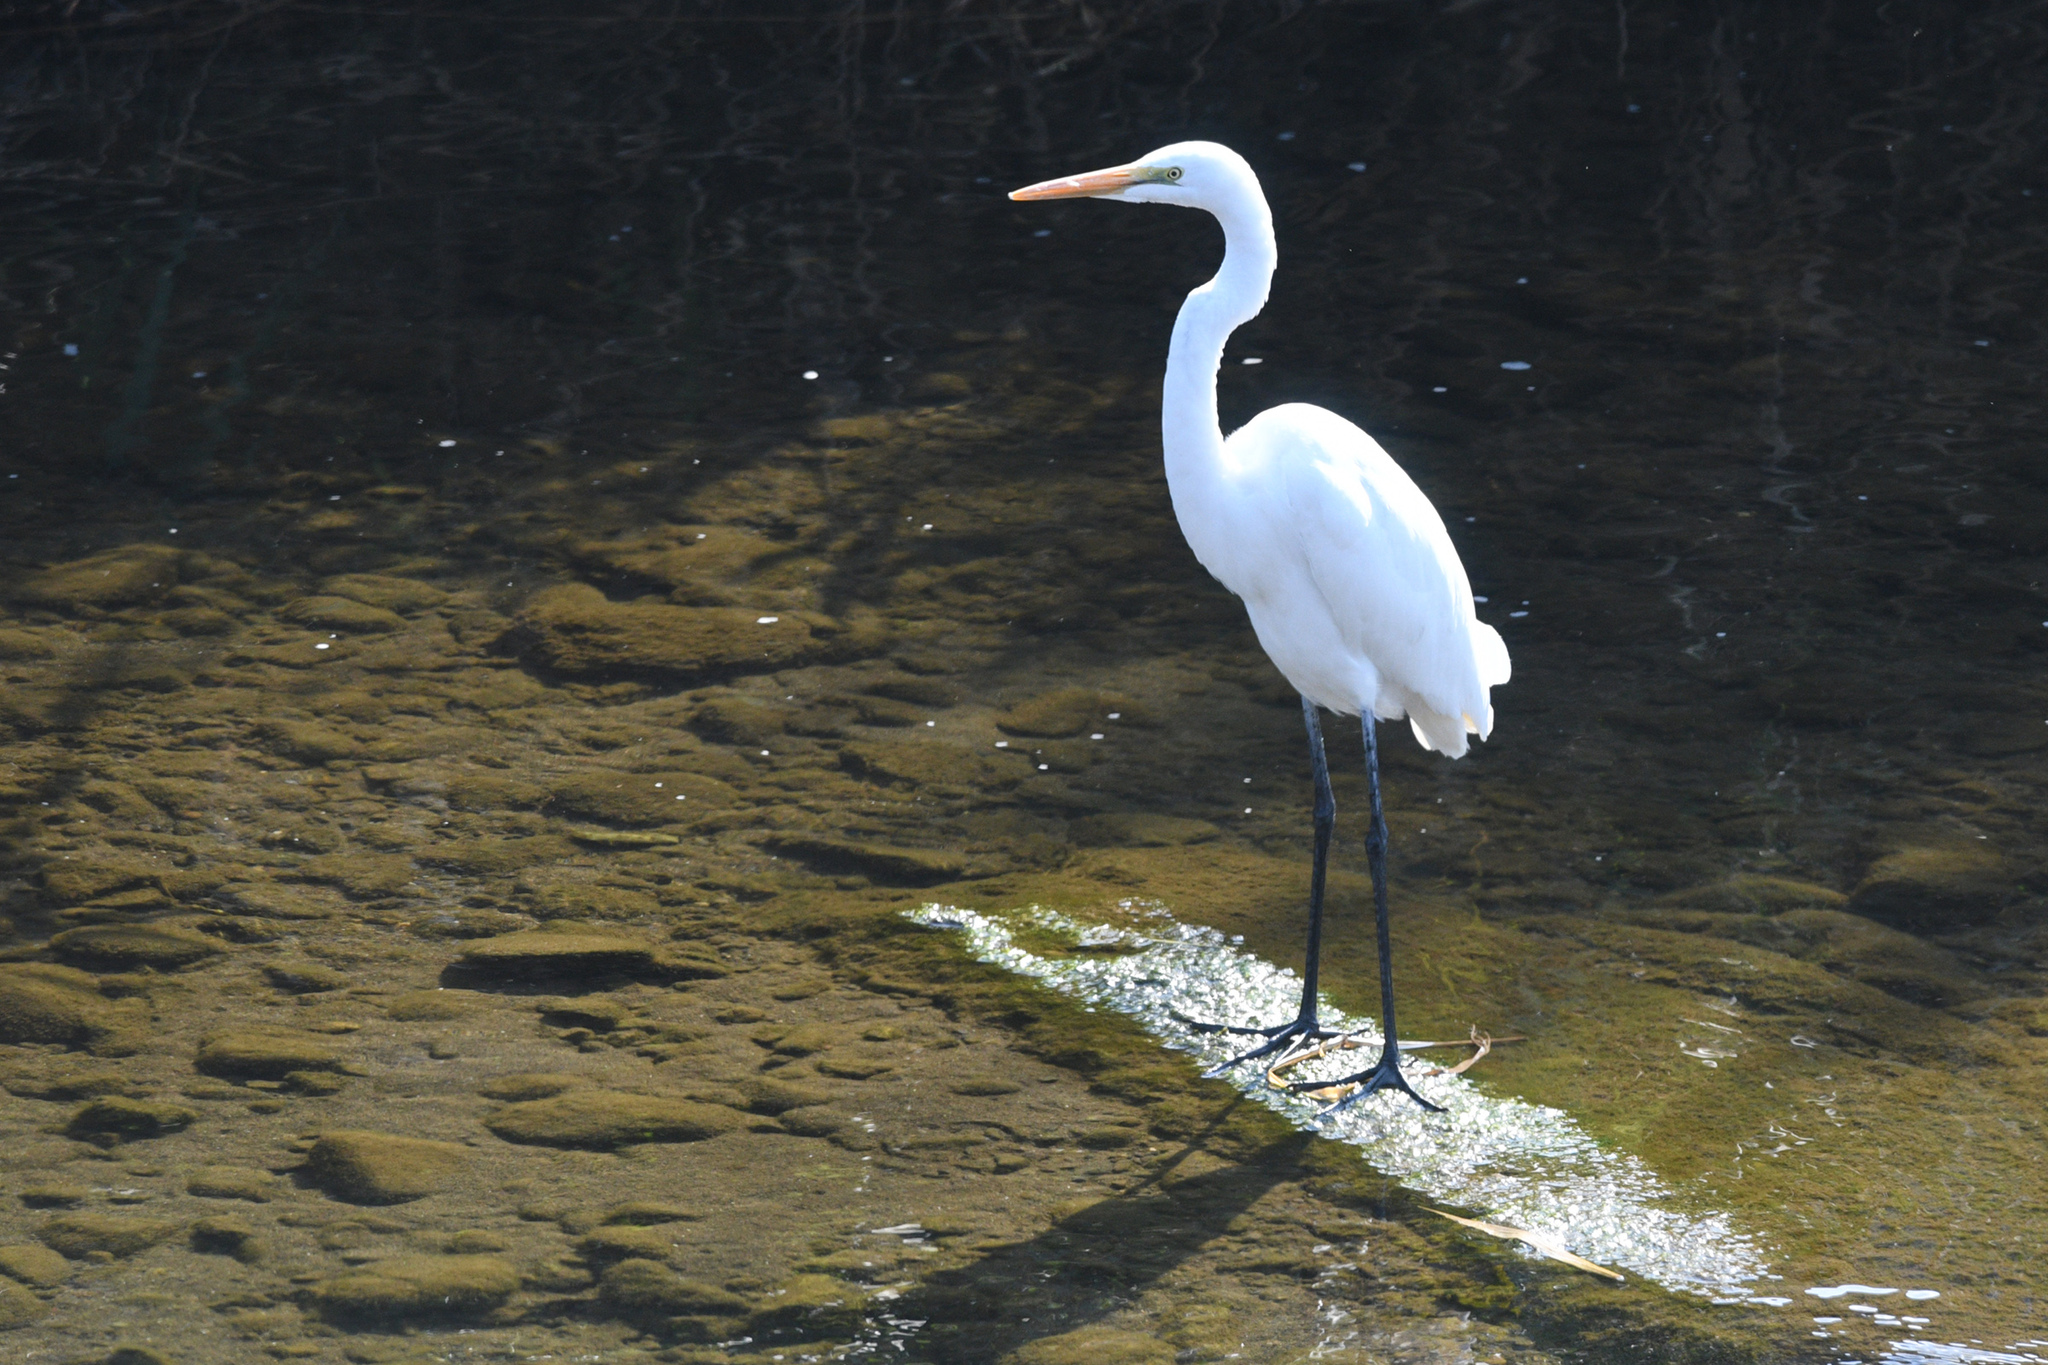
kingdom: Animalia
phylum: Chordata
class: Aves
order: Pelecaniformes
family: Ardeidae
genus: Ardea
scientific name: Ardea alba
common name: Great egret
